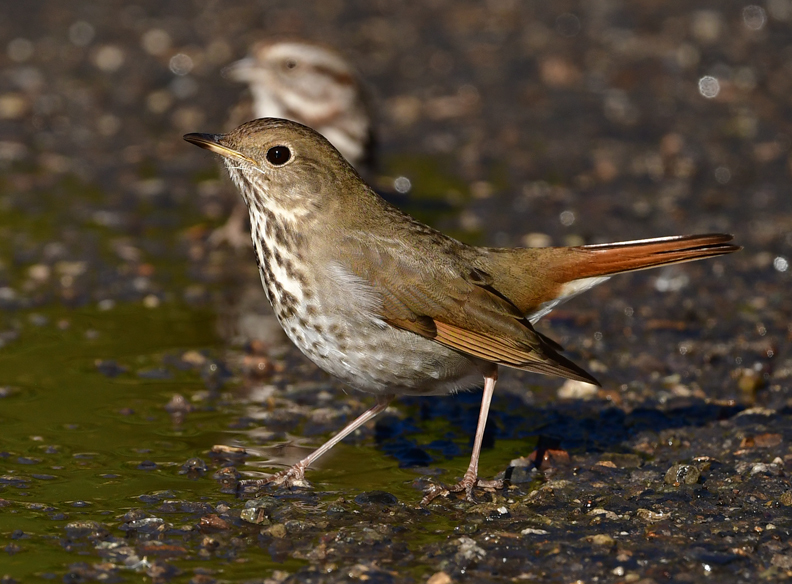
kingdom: Animalia
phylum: Chordata
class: Aves
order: Passeriformes
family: Turdidae
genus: Catharus
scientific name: Catharus guttatus
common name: Hermit thrush
